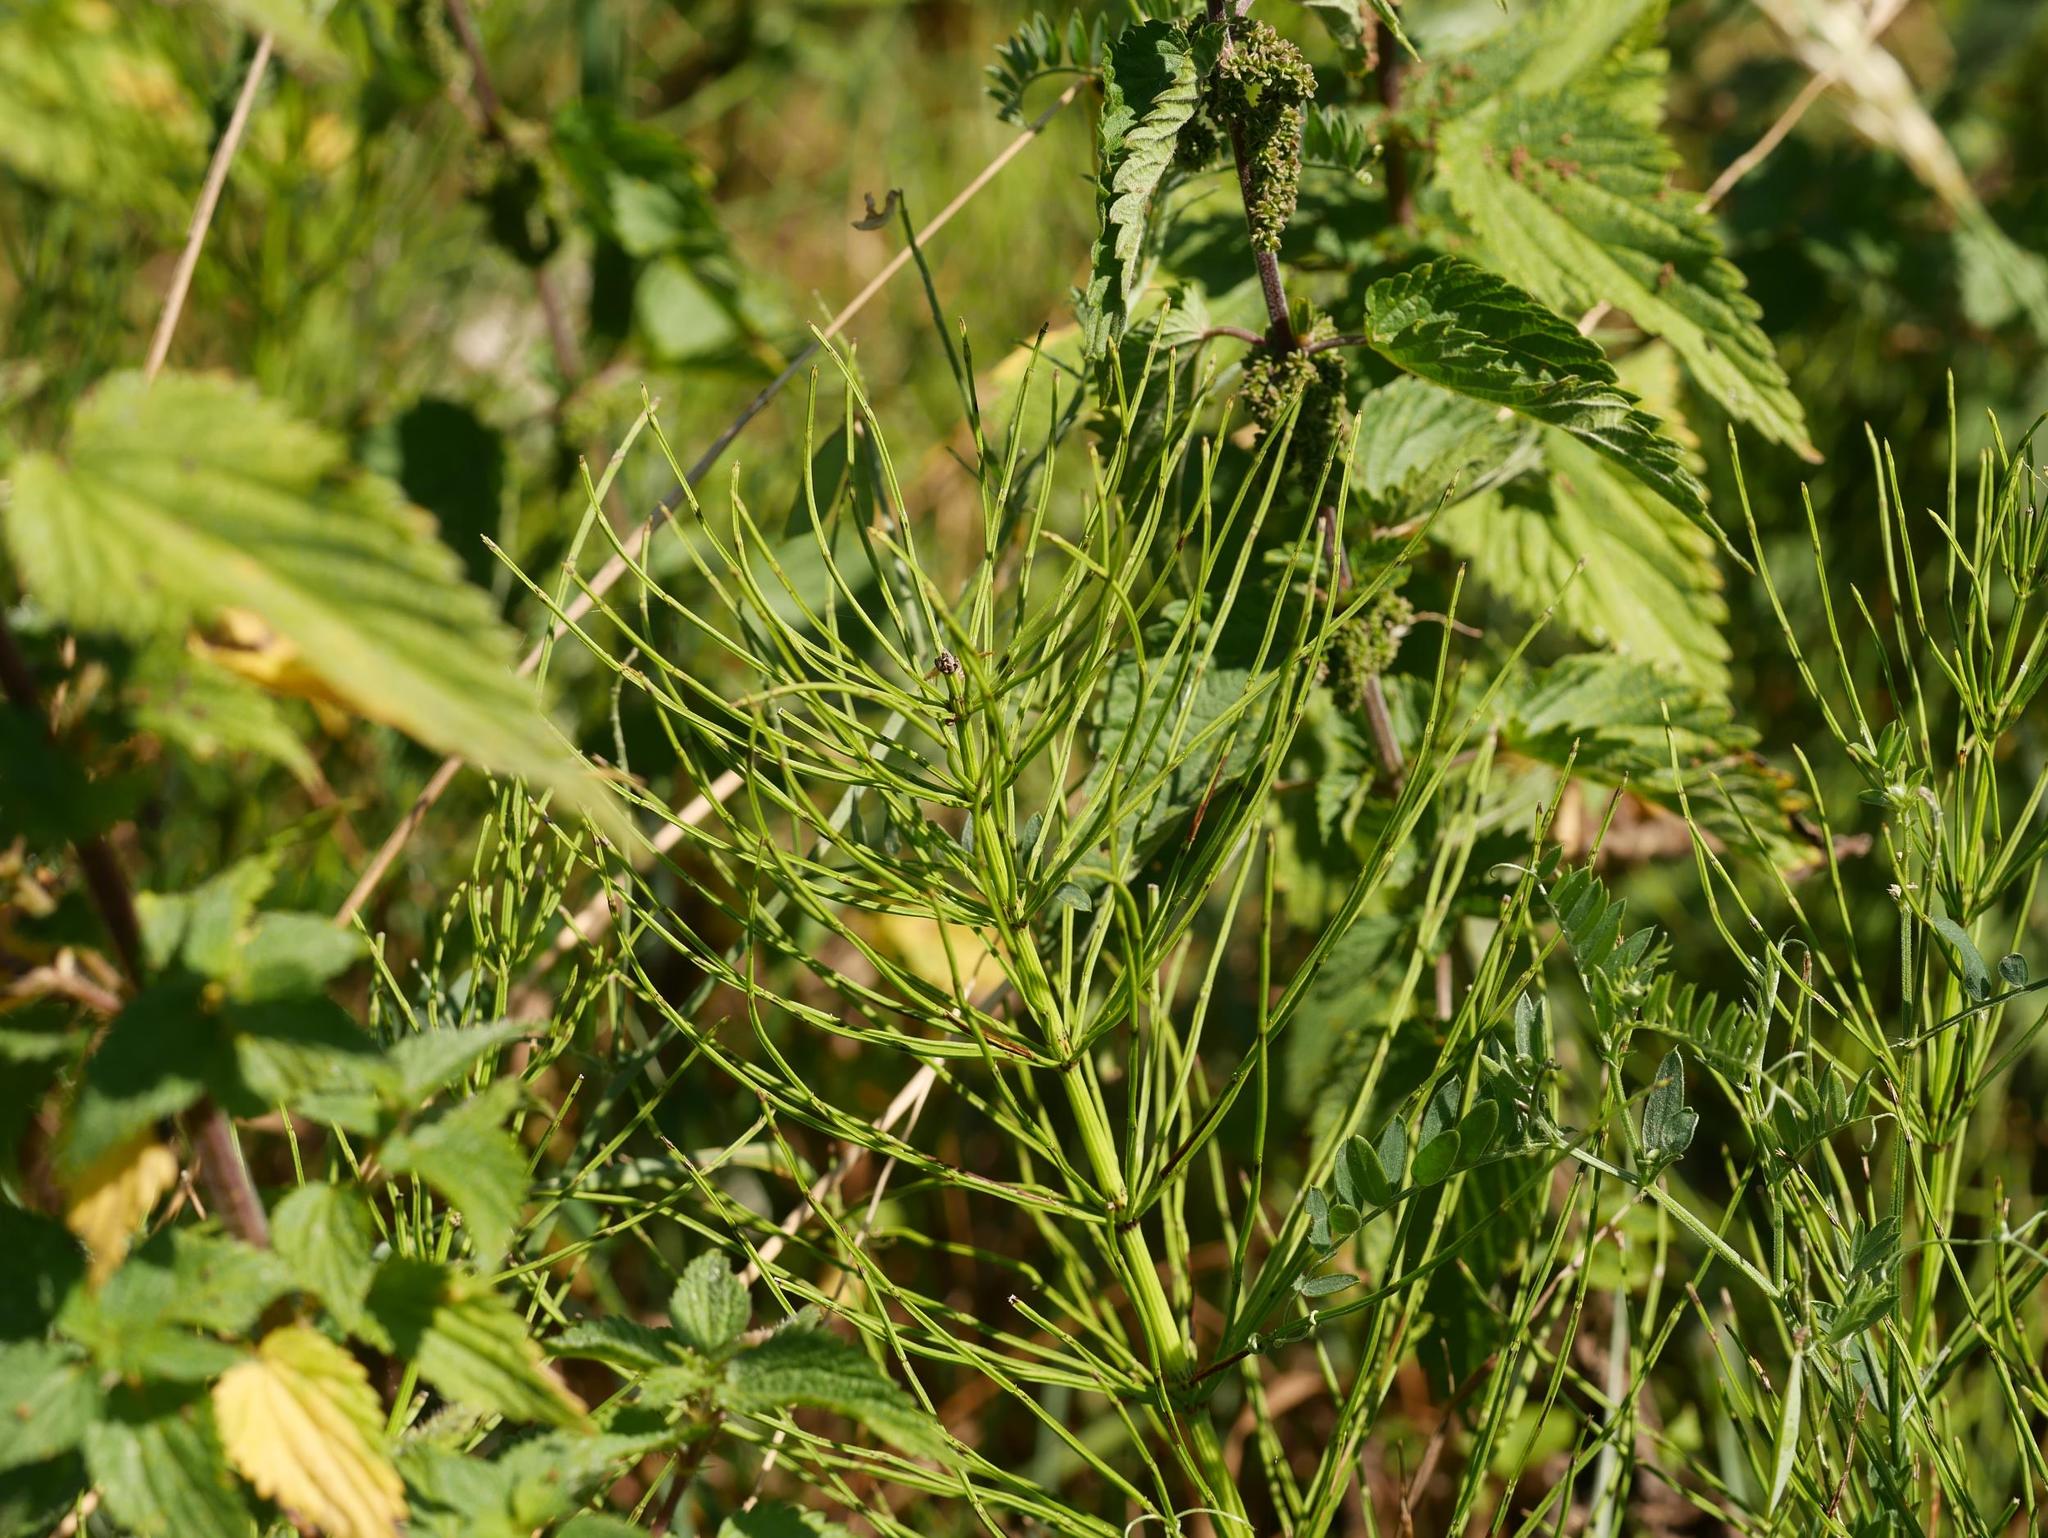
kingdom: Plantae
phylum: Tracheophyta
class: Polypodiopsida
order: Equisetales
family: Equisetaceae
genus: Equisetum
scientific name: Equisetum arvense
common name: Field horsetail
